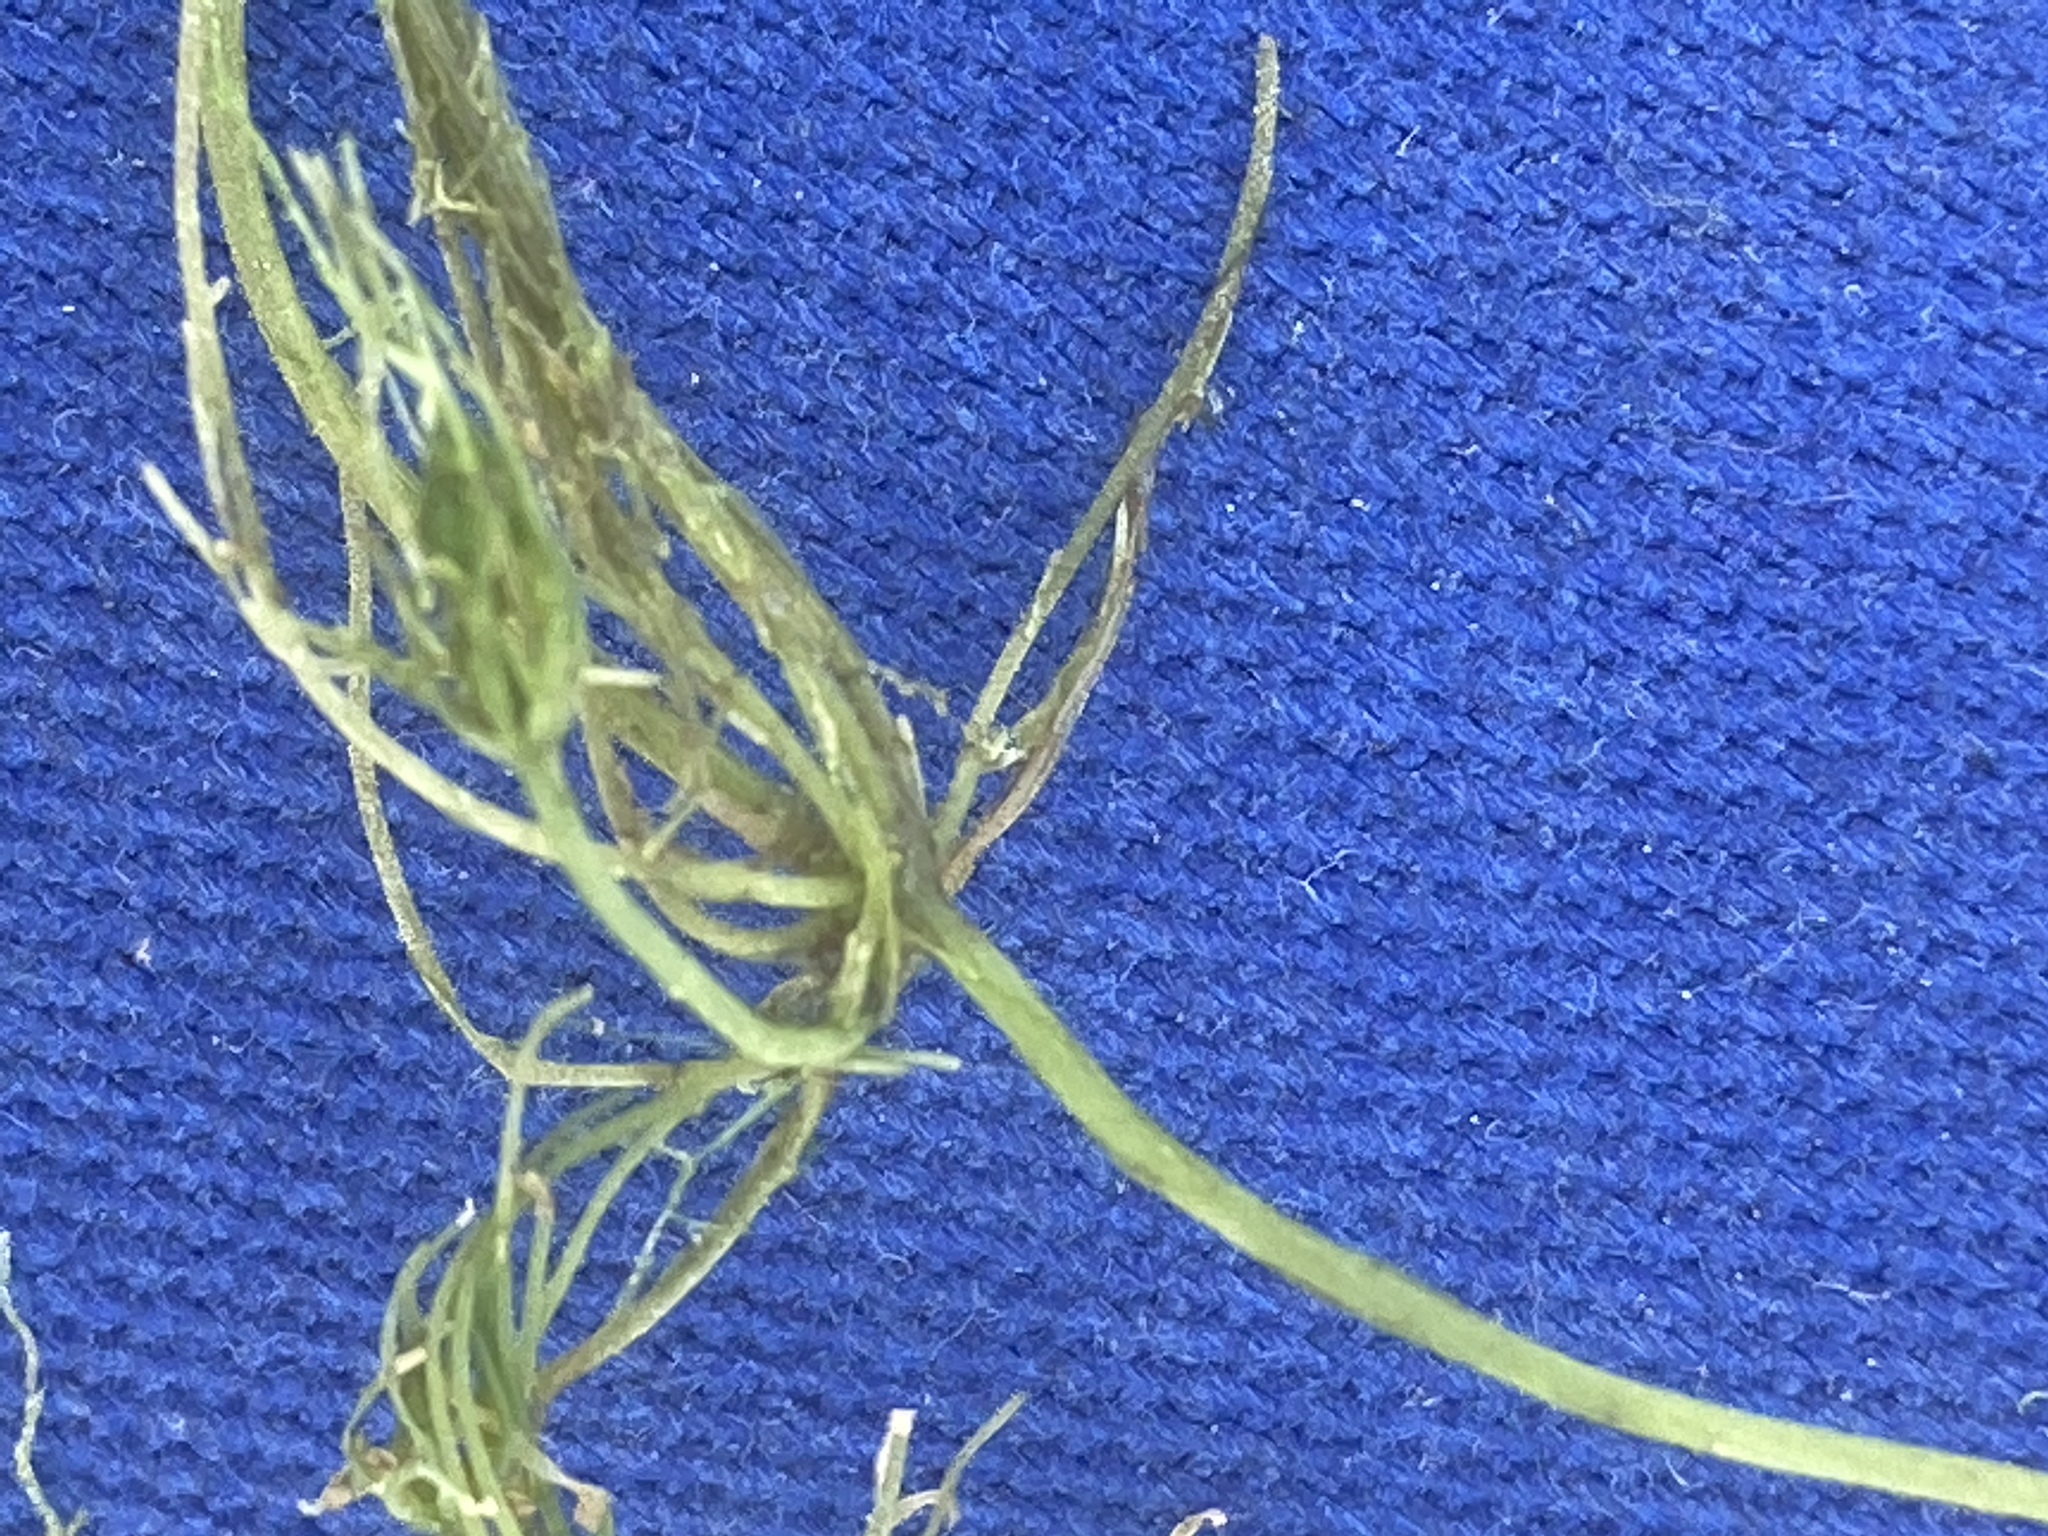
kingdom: Plantae
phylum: Charophyta
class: Charophyceae
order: Charales
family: Characeae
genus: Chara
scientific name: Chara vulgaris
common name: Common stonewort
